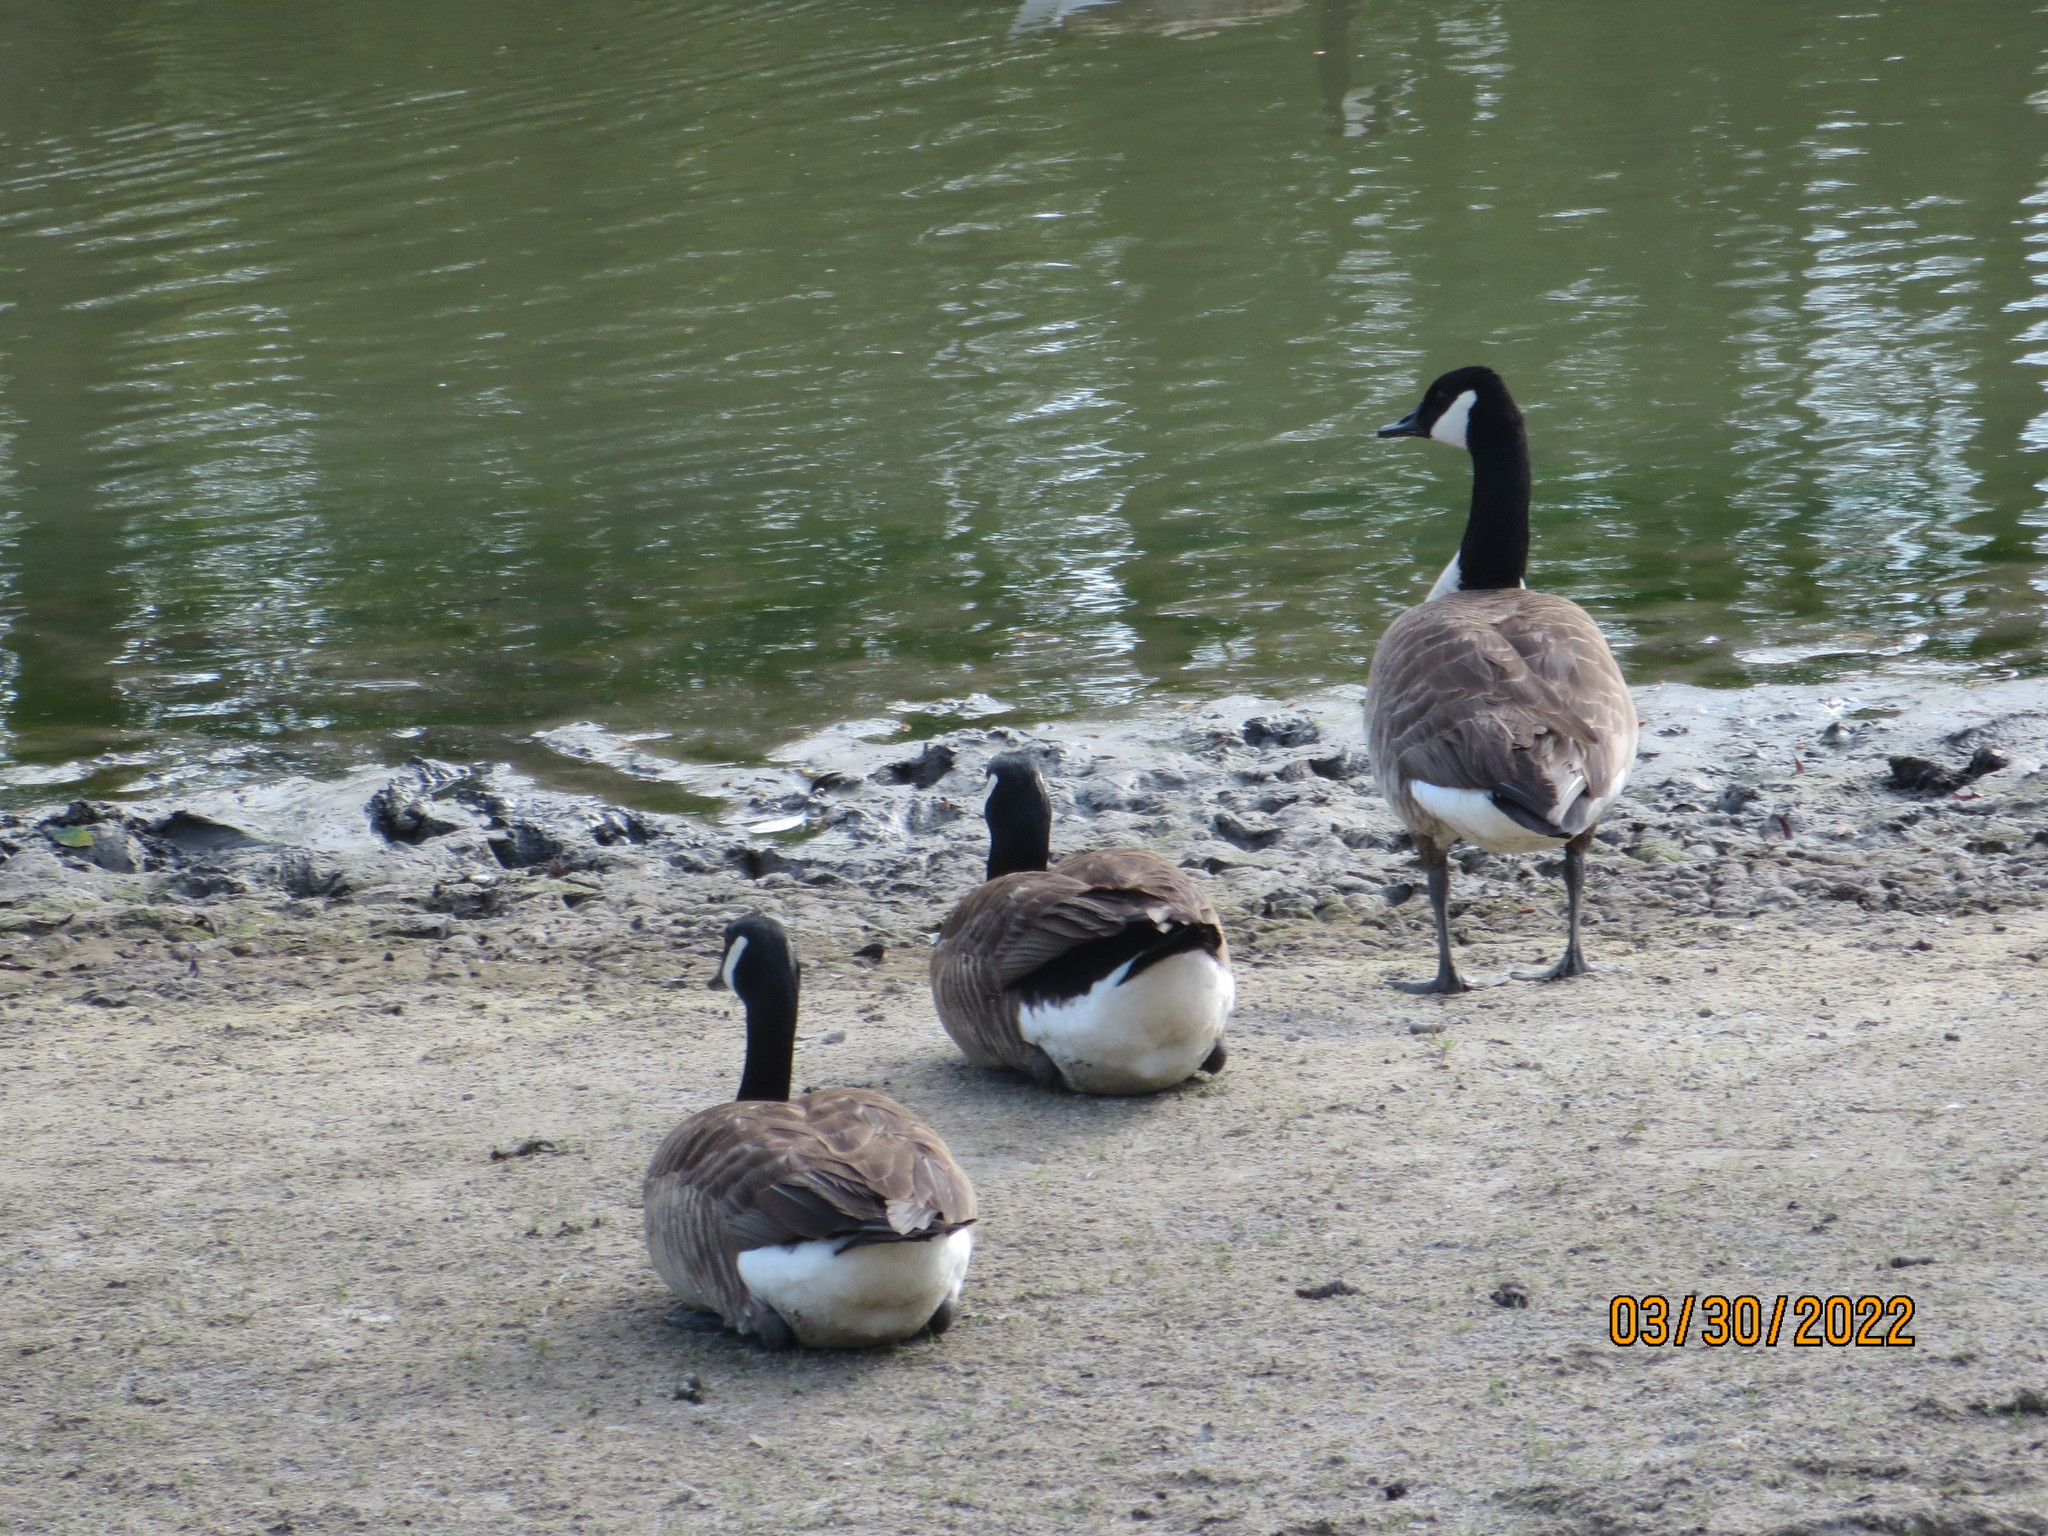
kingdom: Animalia
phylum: Chordata
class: Aves
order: Anseriformes
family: Anatidae
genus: Branta
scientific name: Branta canadensis
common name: Canada goose
